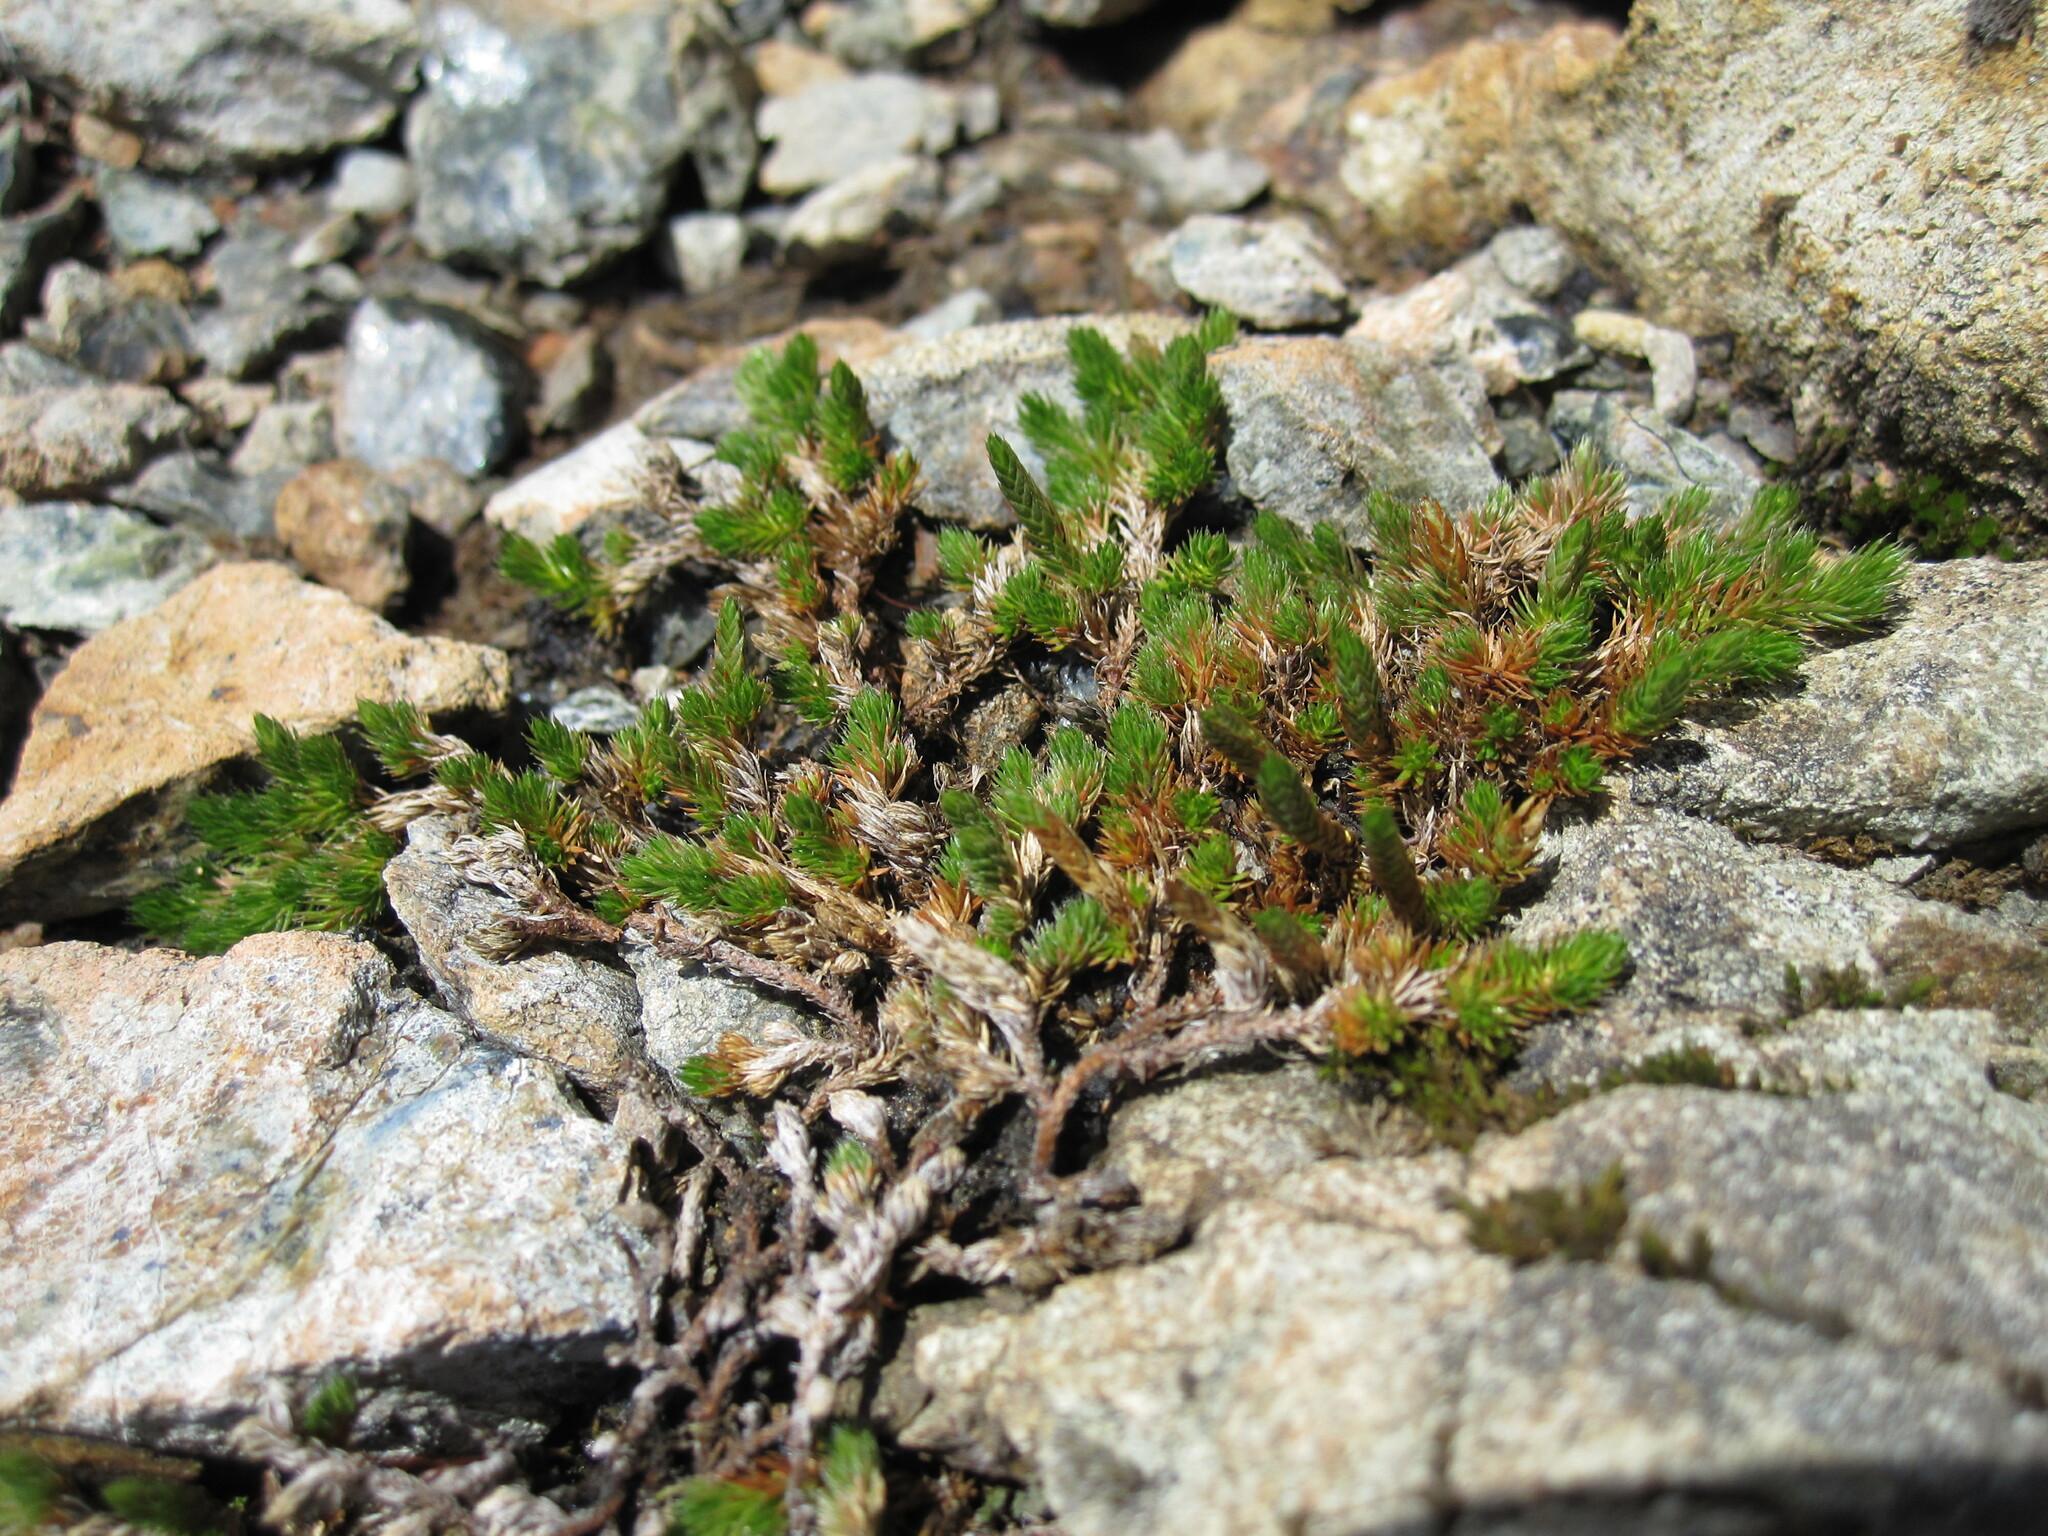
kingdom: Plantae
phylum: Tracheophyta
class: Lycopodiopsida
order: Selaginellales
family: Selaginellaceae
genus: Selaginella
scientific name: Selaginella wallacei
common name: Wallace's selaginella
